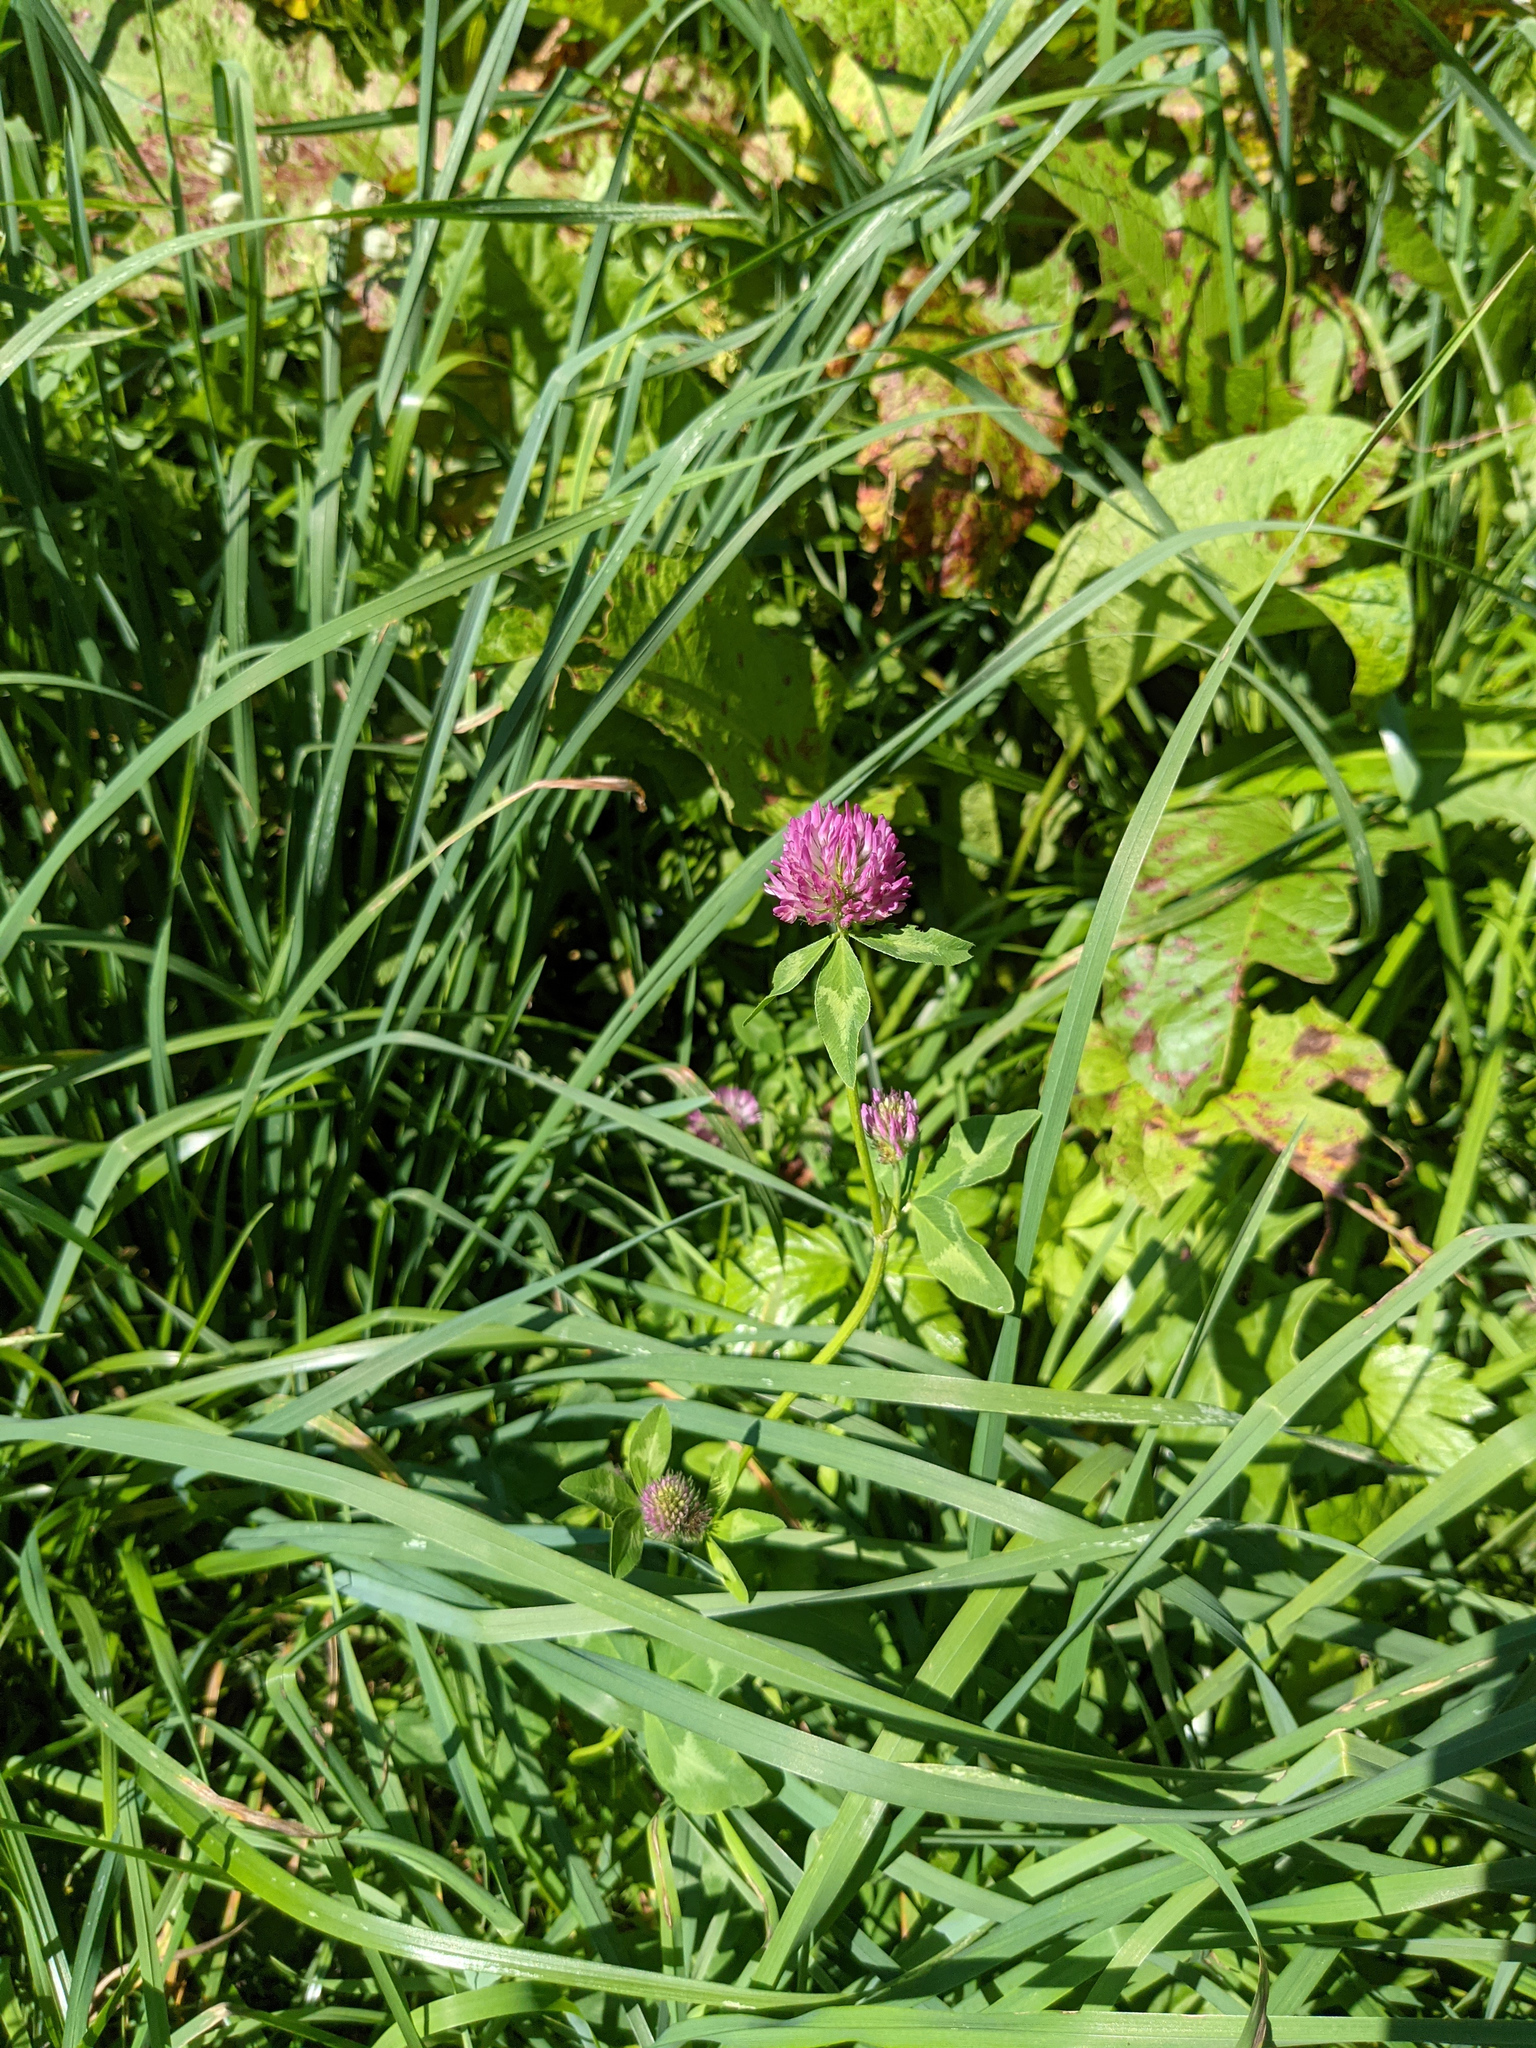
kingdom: Plantae
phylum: Tracheophyta
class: Magnoliopsida
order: Fabales
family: Fabaceae
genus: Trifolium
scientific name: Trifolium pratense
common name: Red clover
